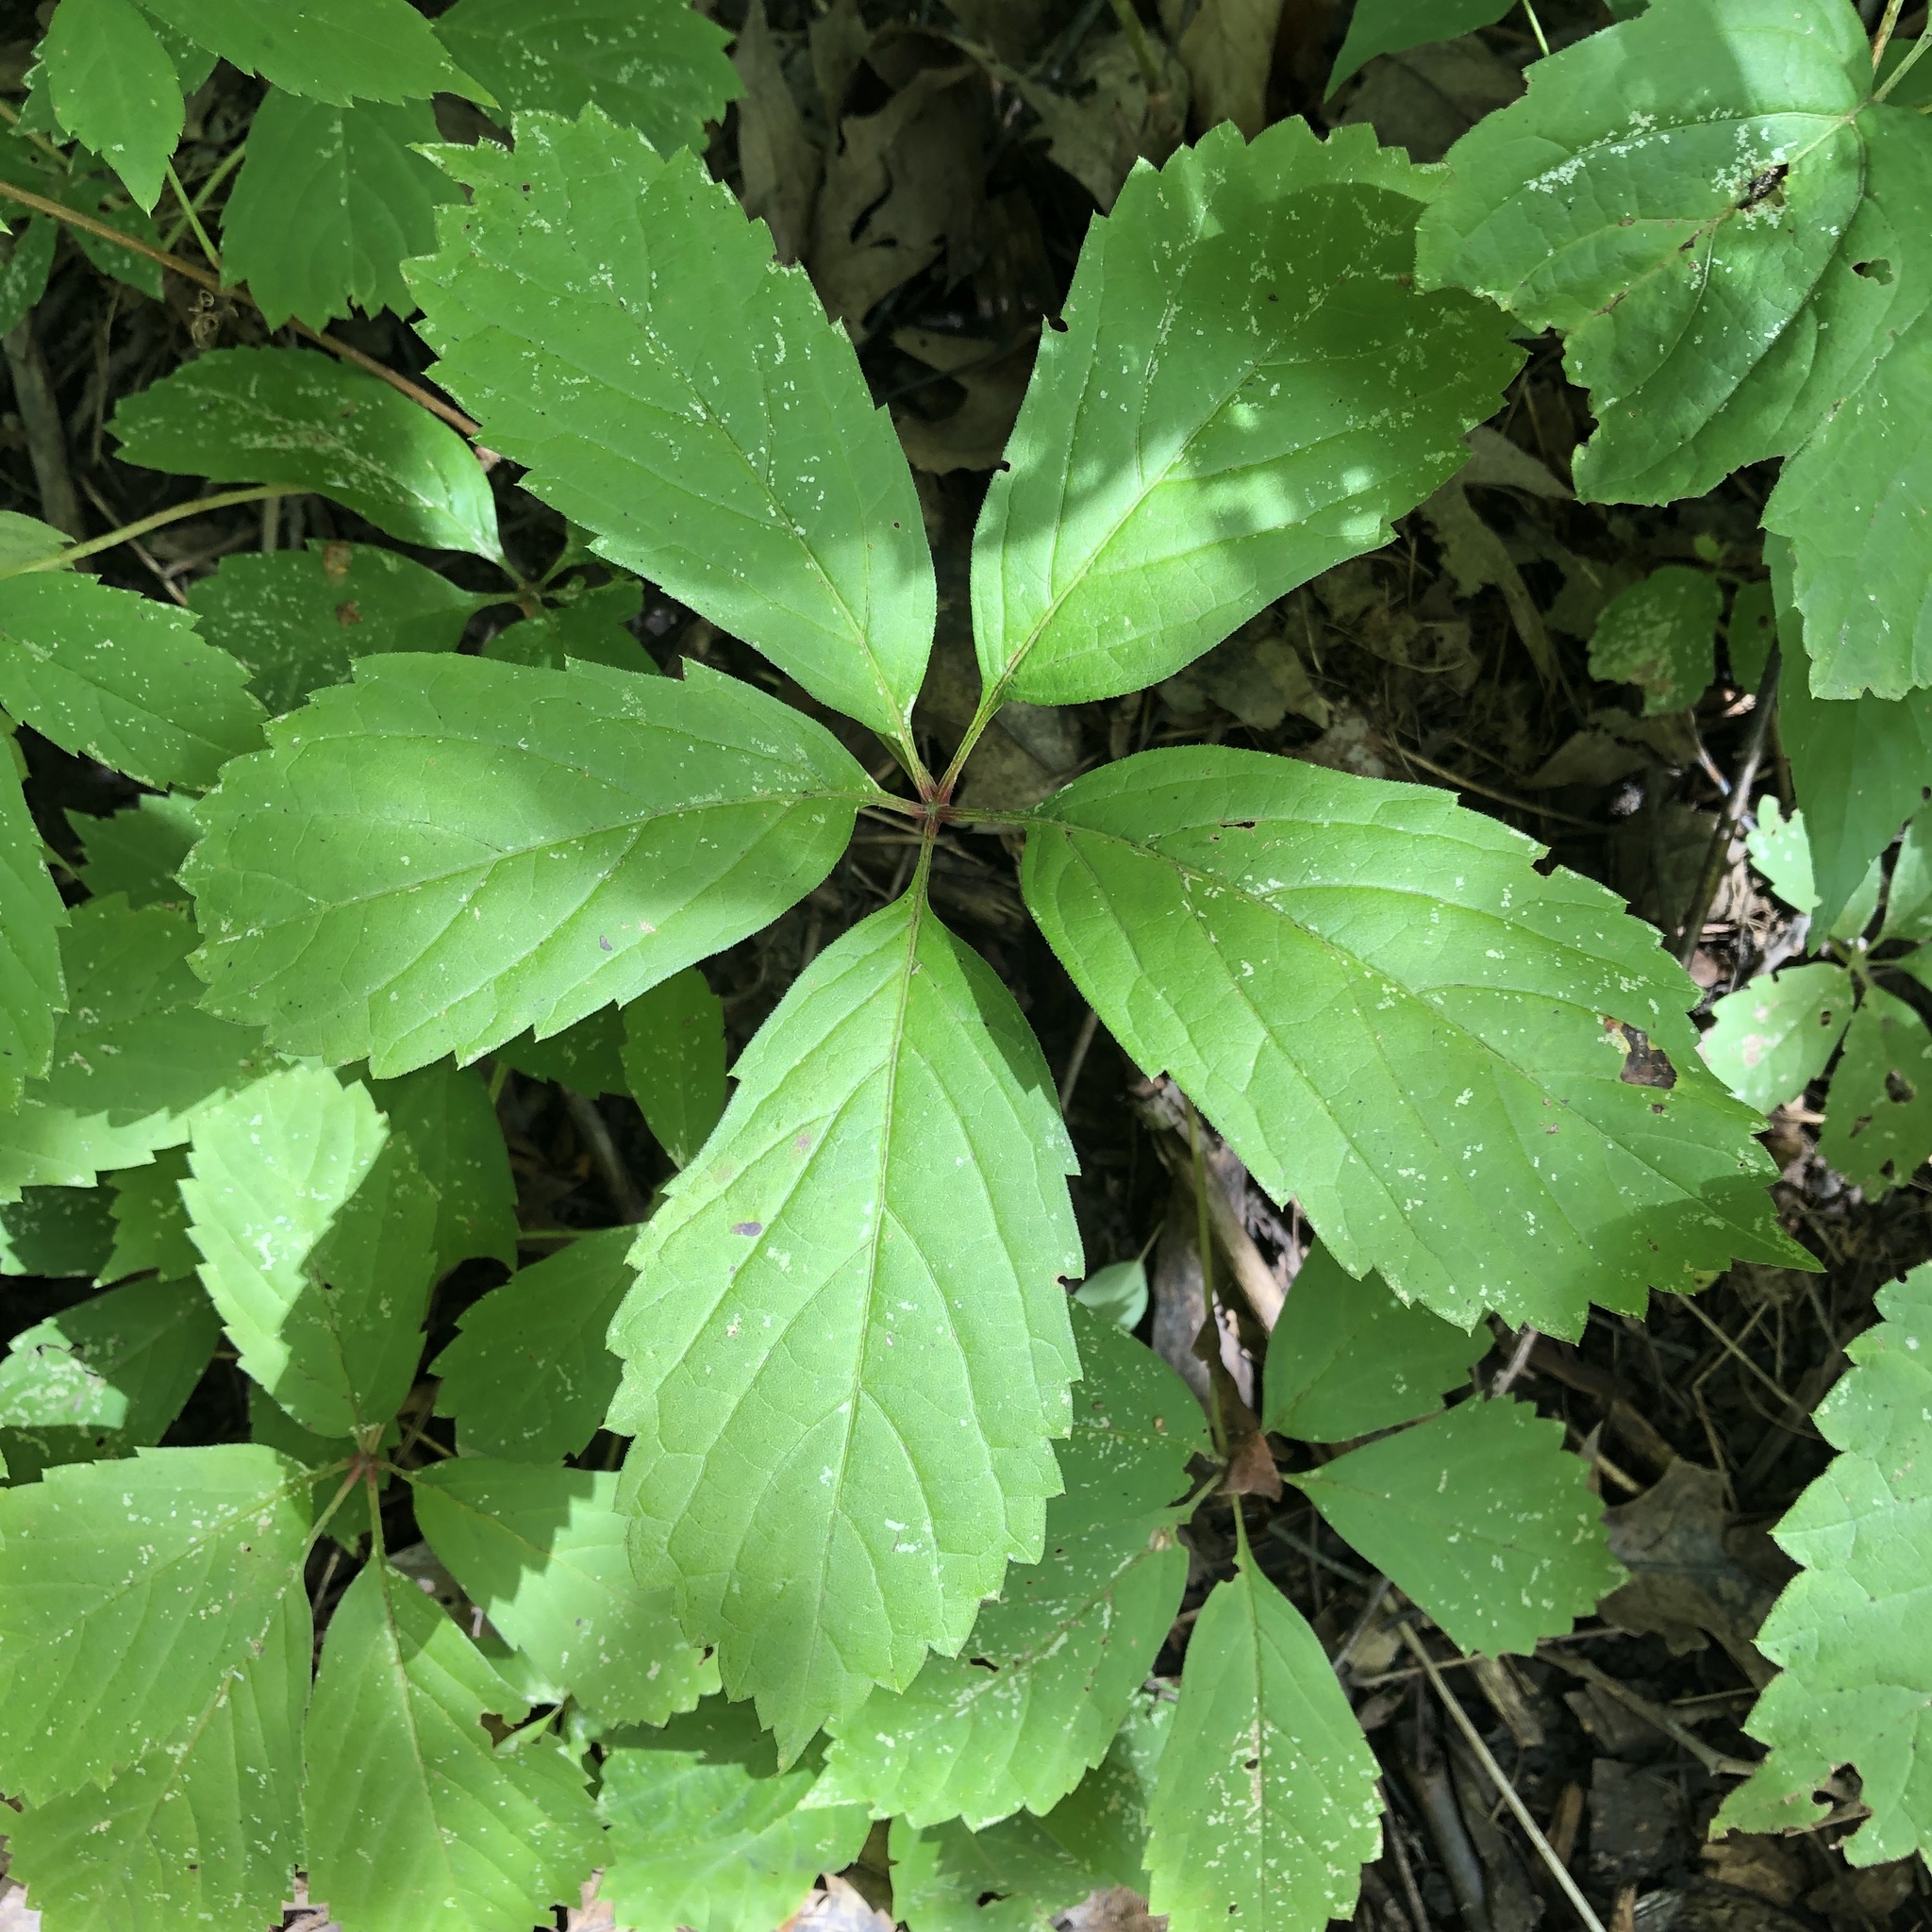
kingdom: Plantae
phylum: Tracheophyta
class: Magnoliopsida
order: Vitales
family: Vitaceae
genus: Parthenocissus
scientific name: Parthenocissus inserta
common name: False virginia-creeper
